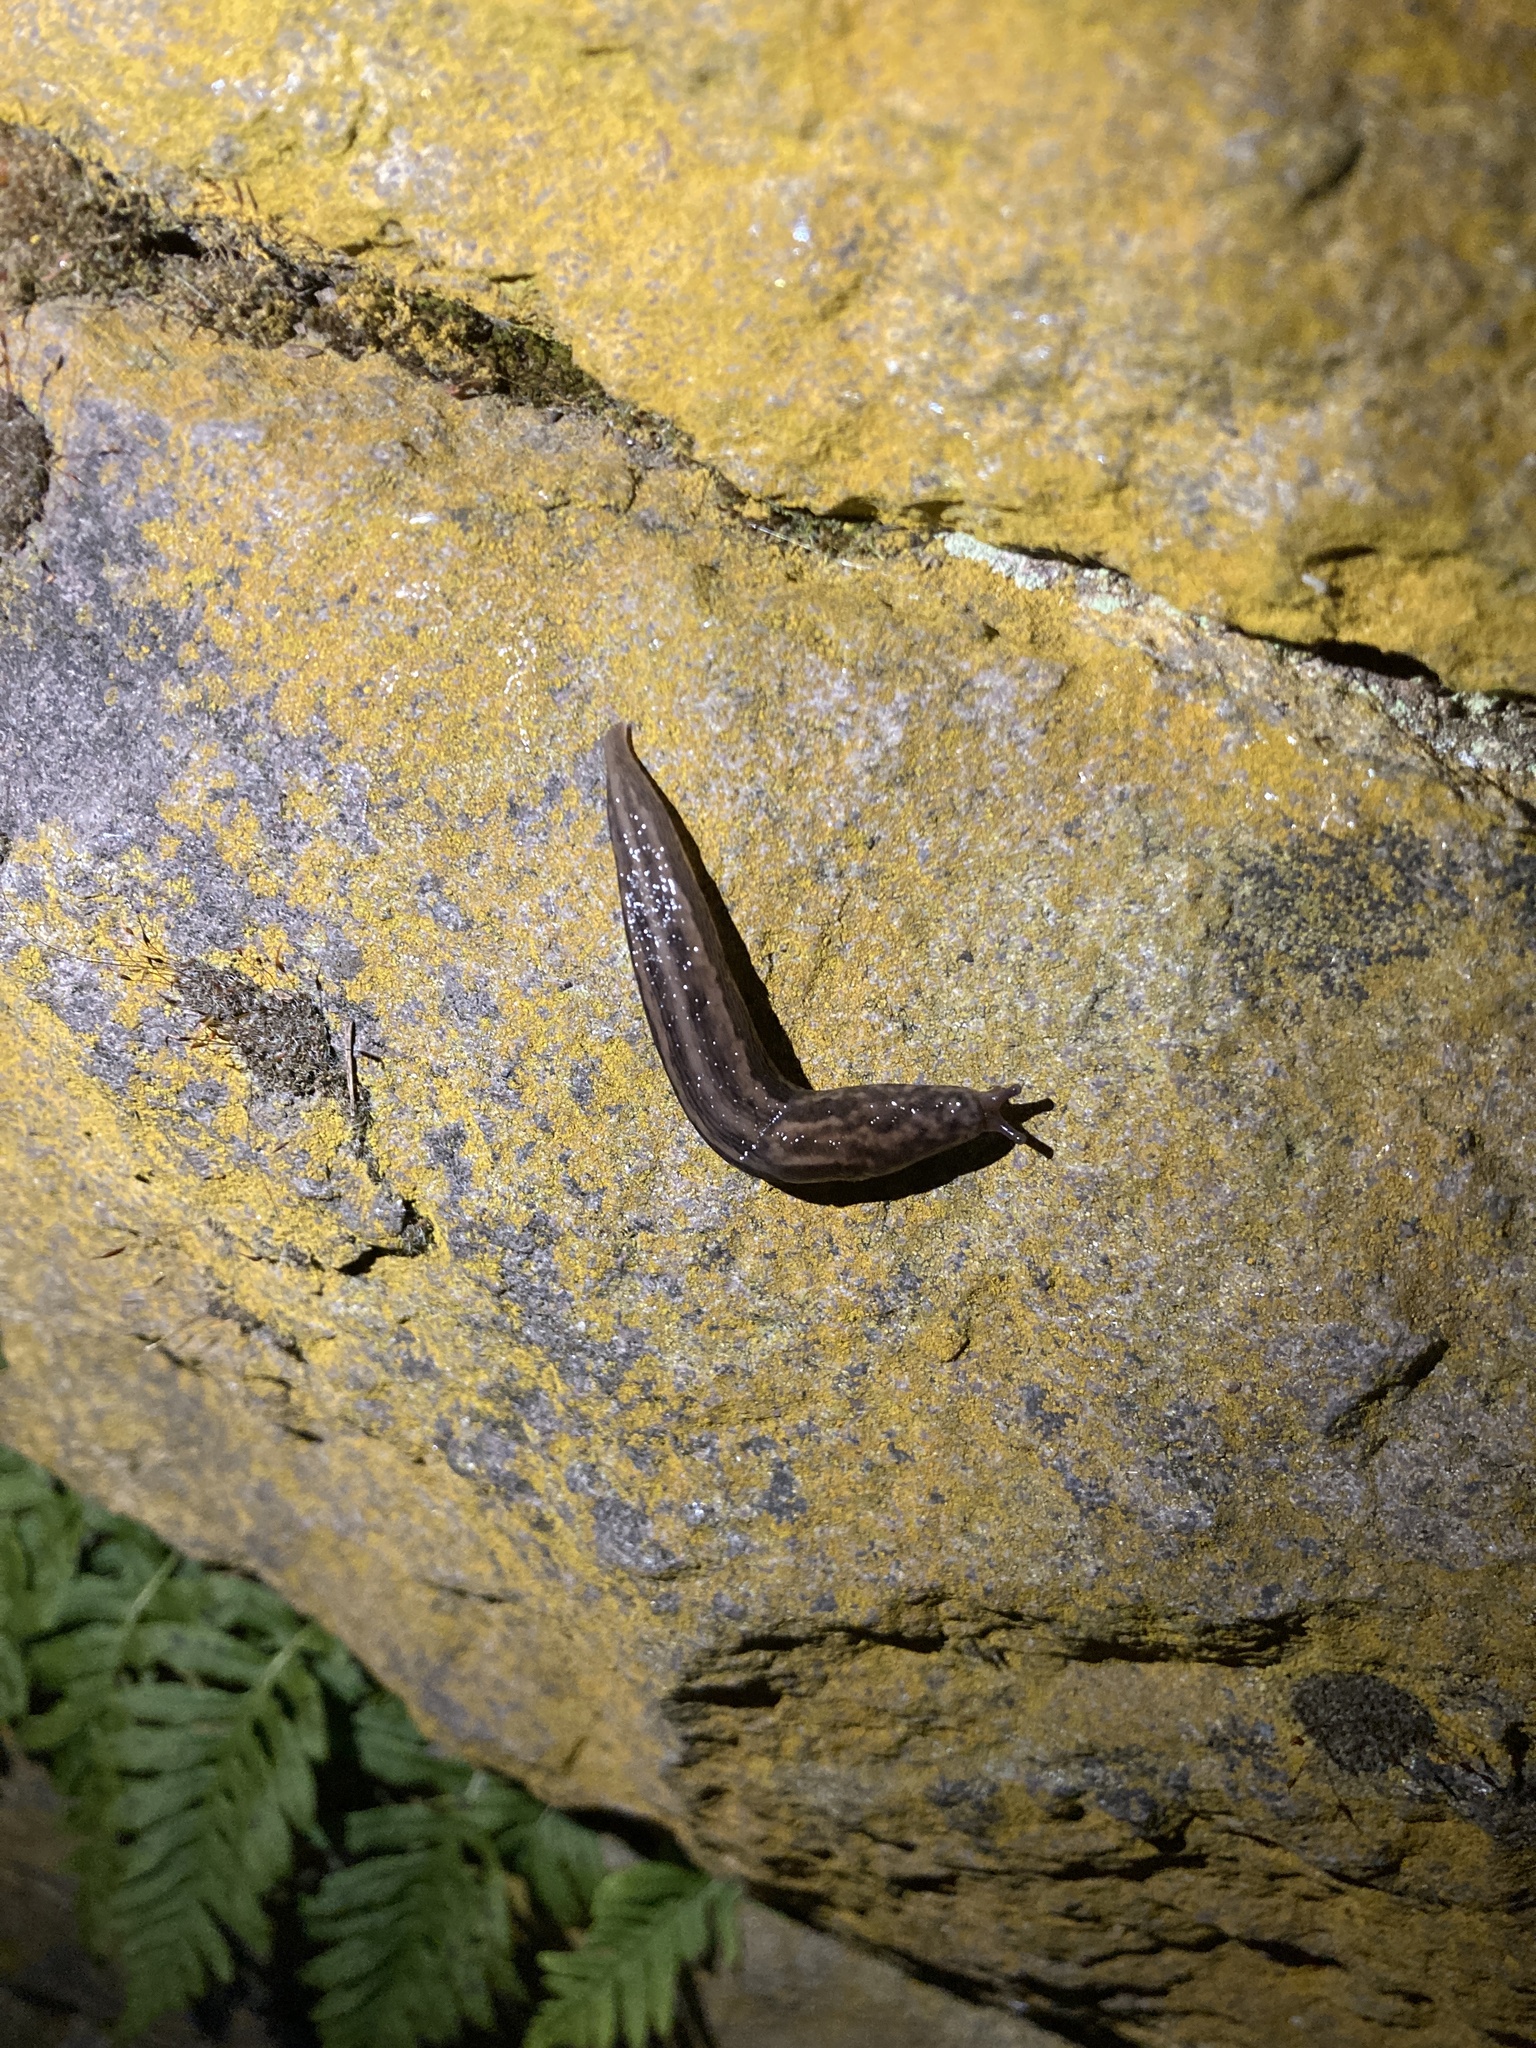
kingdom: Animalia
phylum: Mollusca
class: Gastropoda
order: Stylommatophora
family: Limacidae
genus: Limax
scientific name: Limax maximus
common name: Great grey slug
